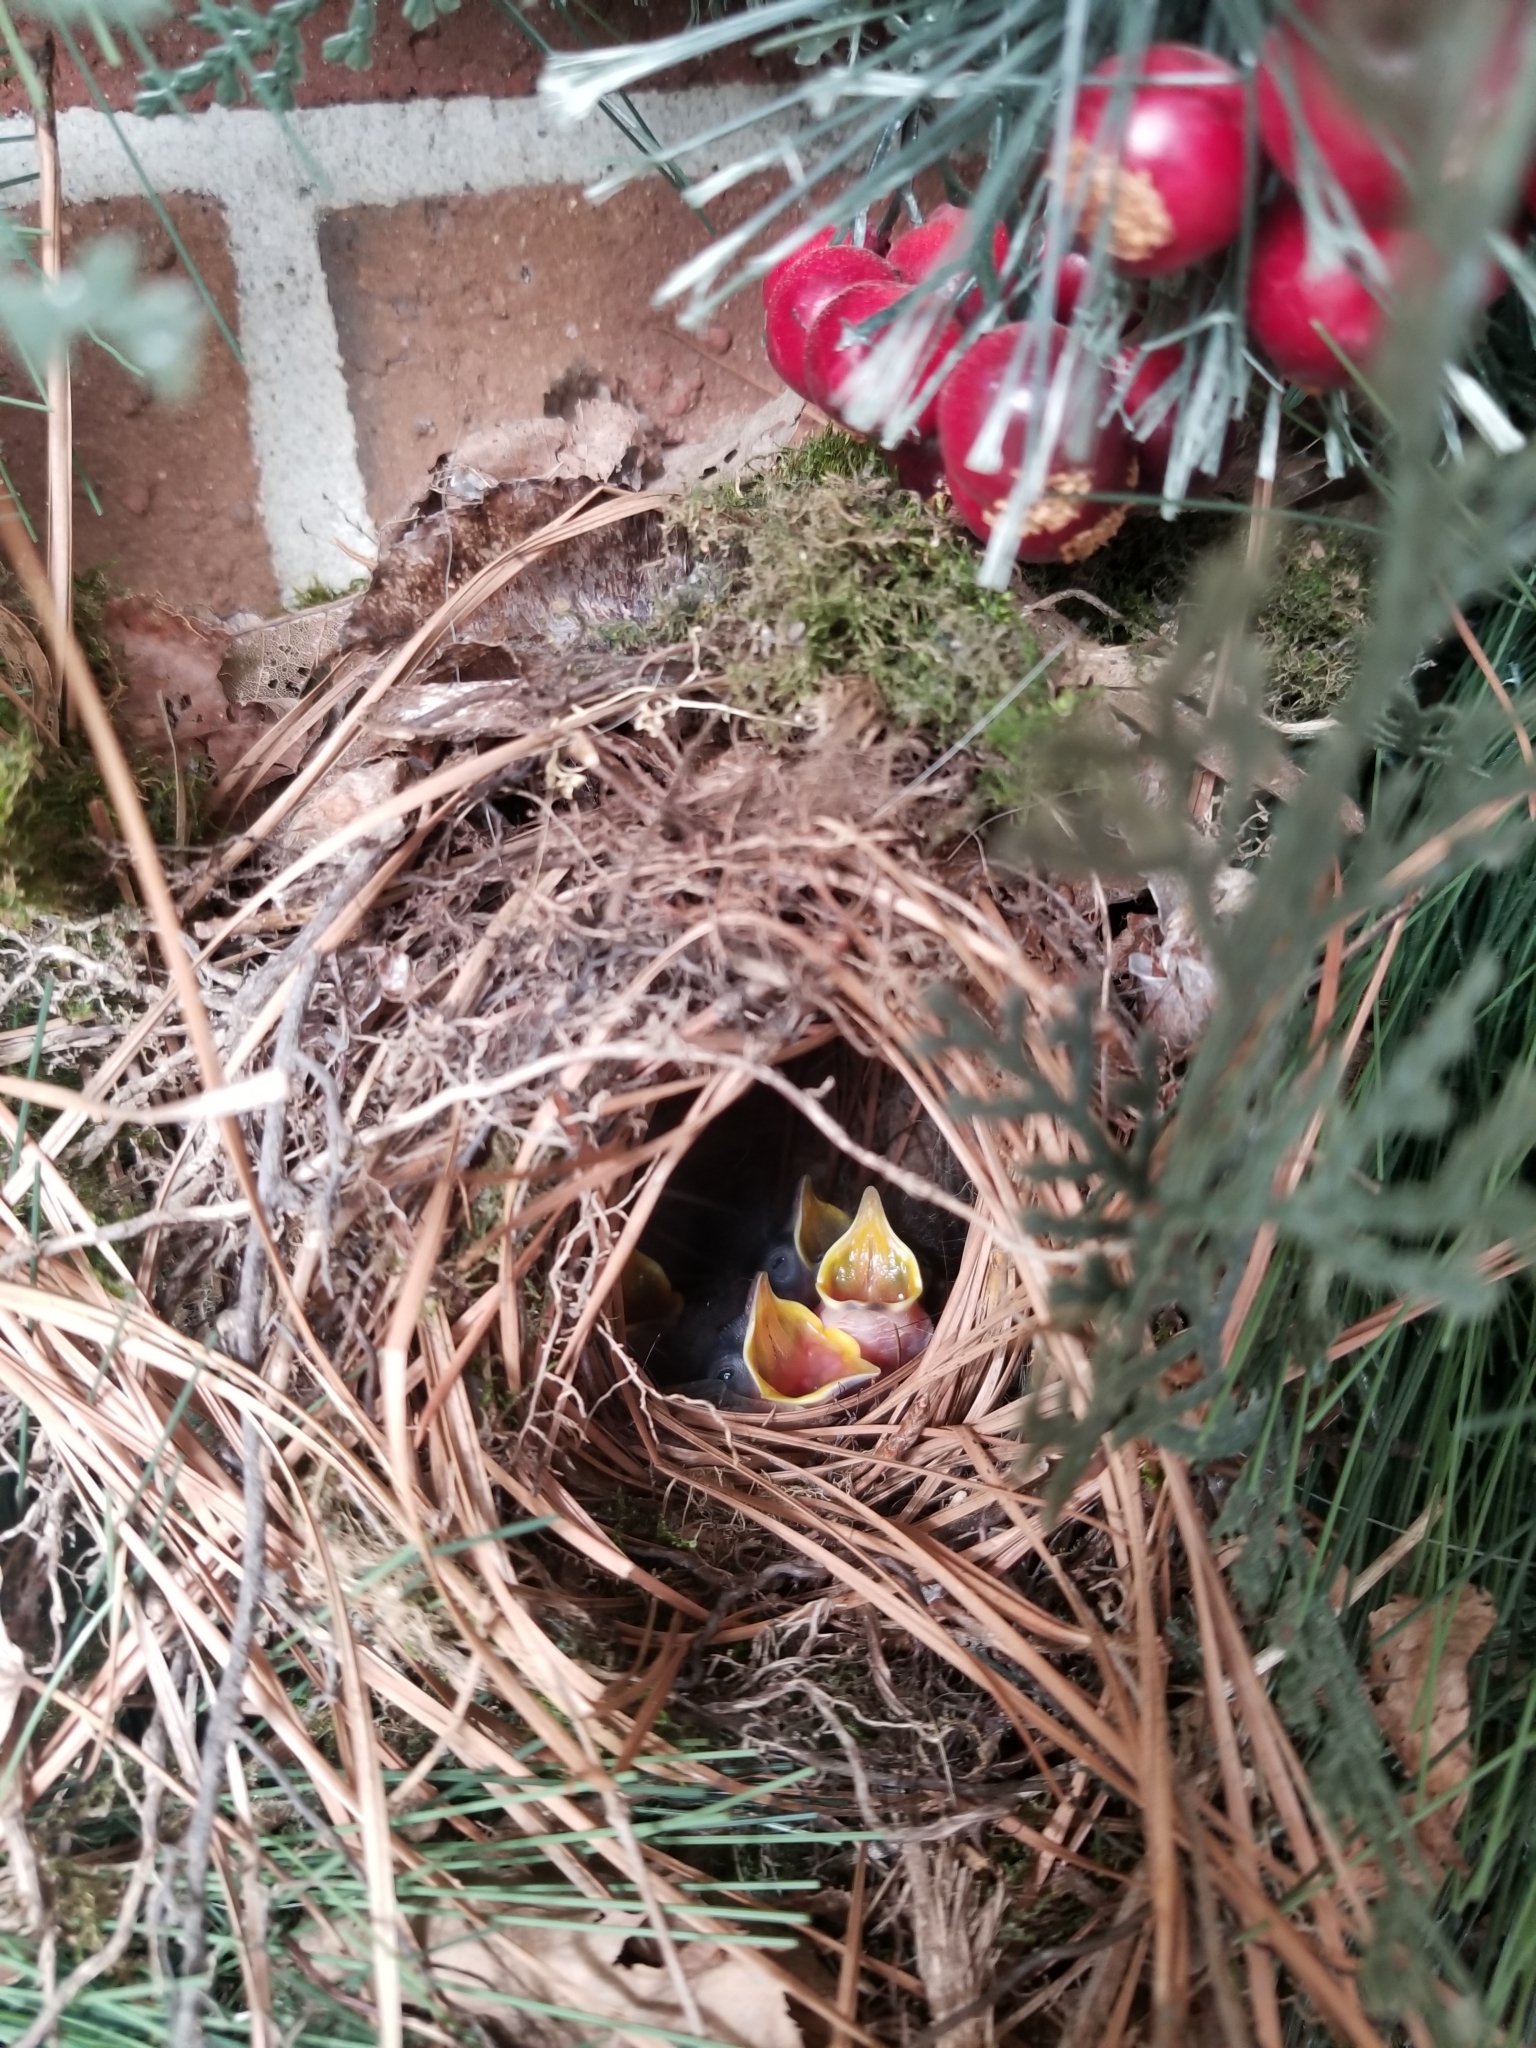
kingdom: Animalia
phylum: Chordata
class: Aves
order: Passeriformes
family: Troglodytidae
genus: Thryothorus
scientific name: Thryothorus ludovicianus
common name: Carolina wren
